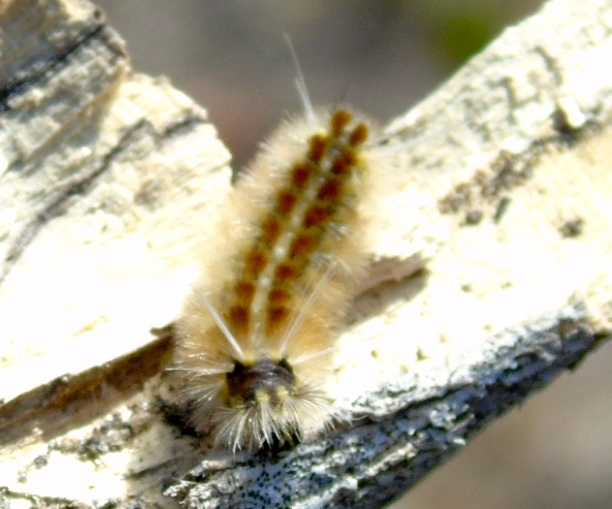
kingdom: Animalia
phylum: Arthropoda
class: Insecta
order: Lepidoptera
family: Erebidae
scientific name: Erebidae
